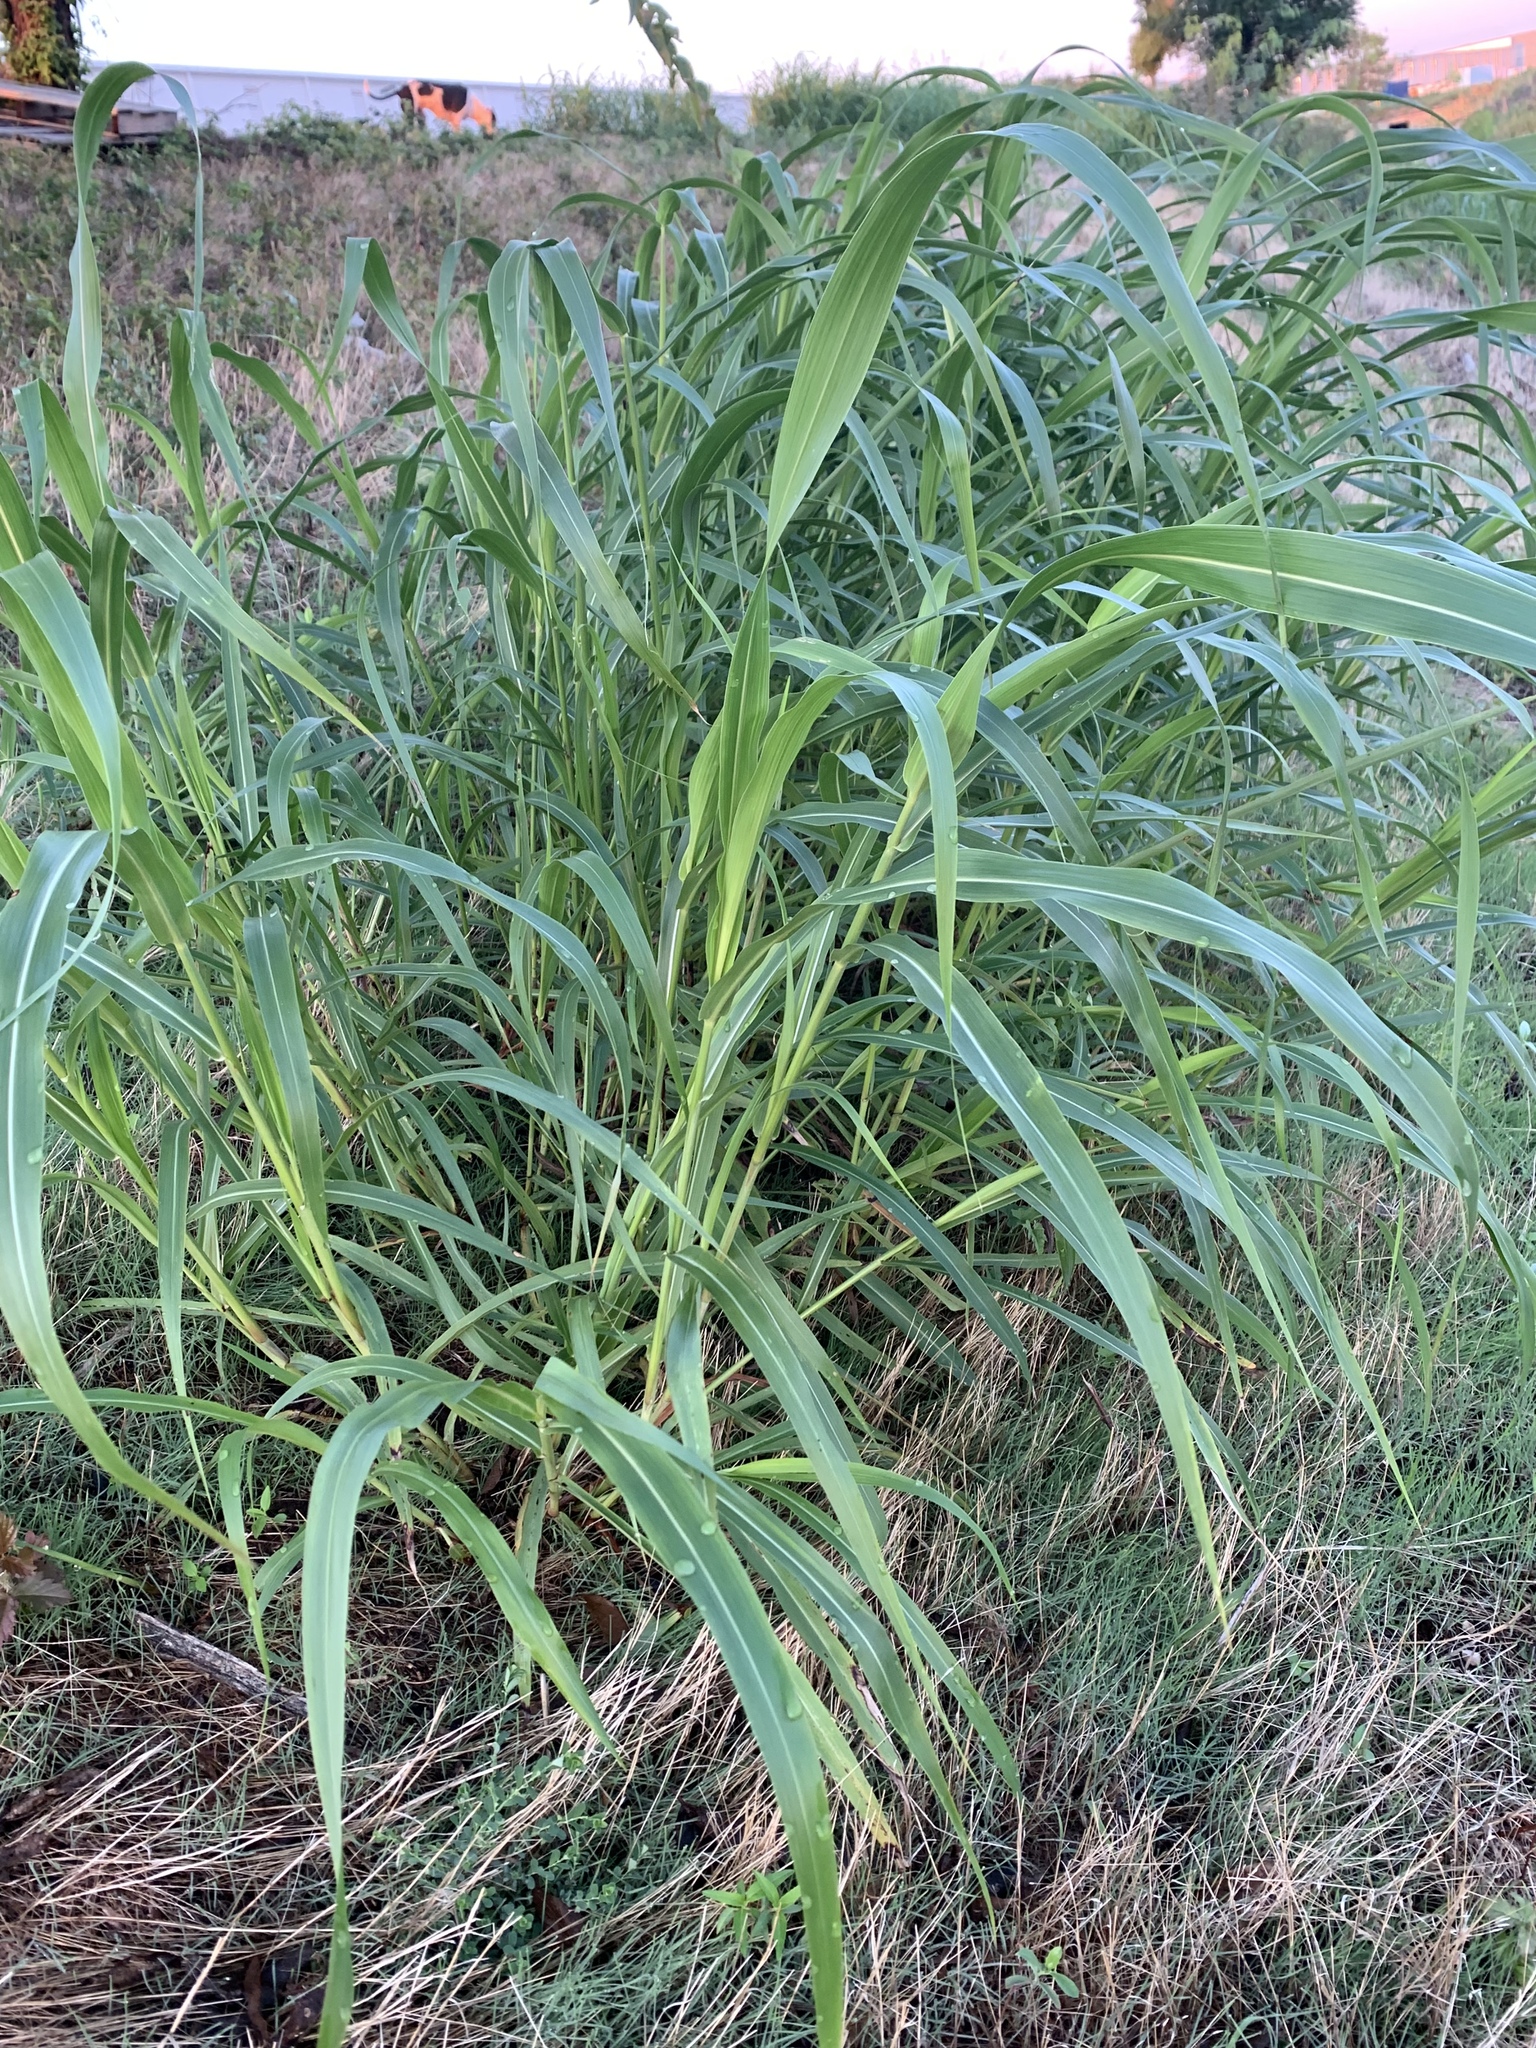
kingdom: Plantae
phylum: Tracheophyta
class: Liliopsida
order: Poales
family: Poaceae
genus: Sorghum
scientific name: Sorghum halepense
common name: Johnson-grass
